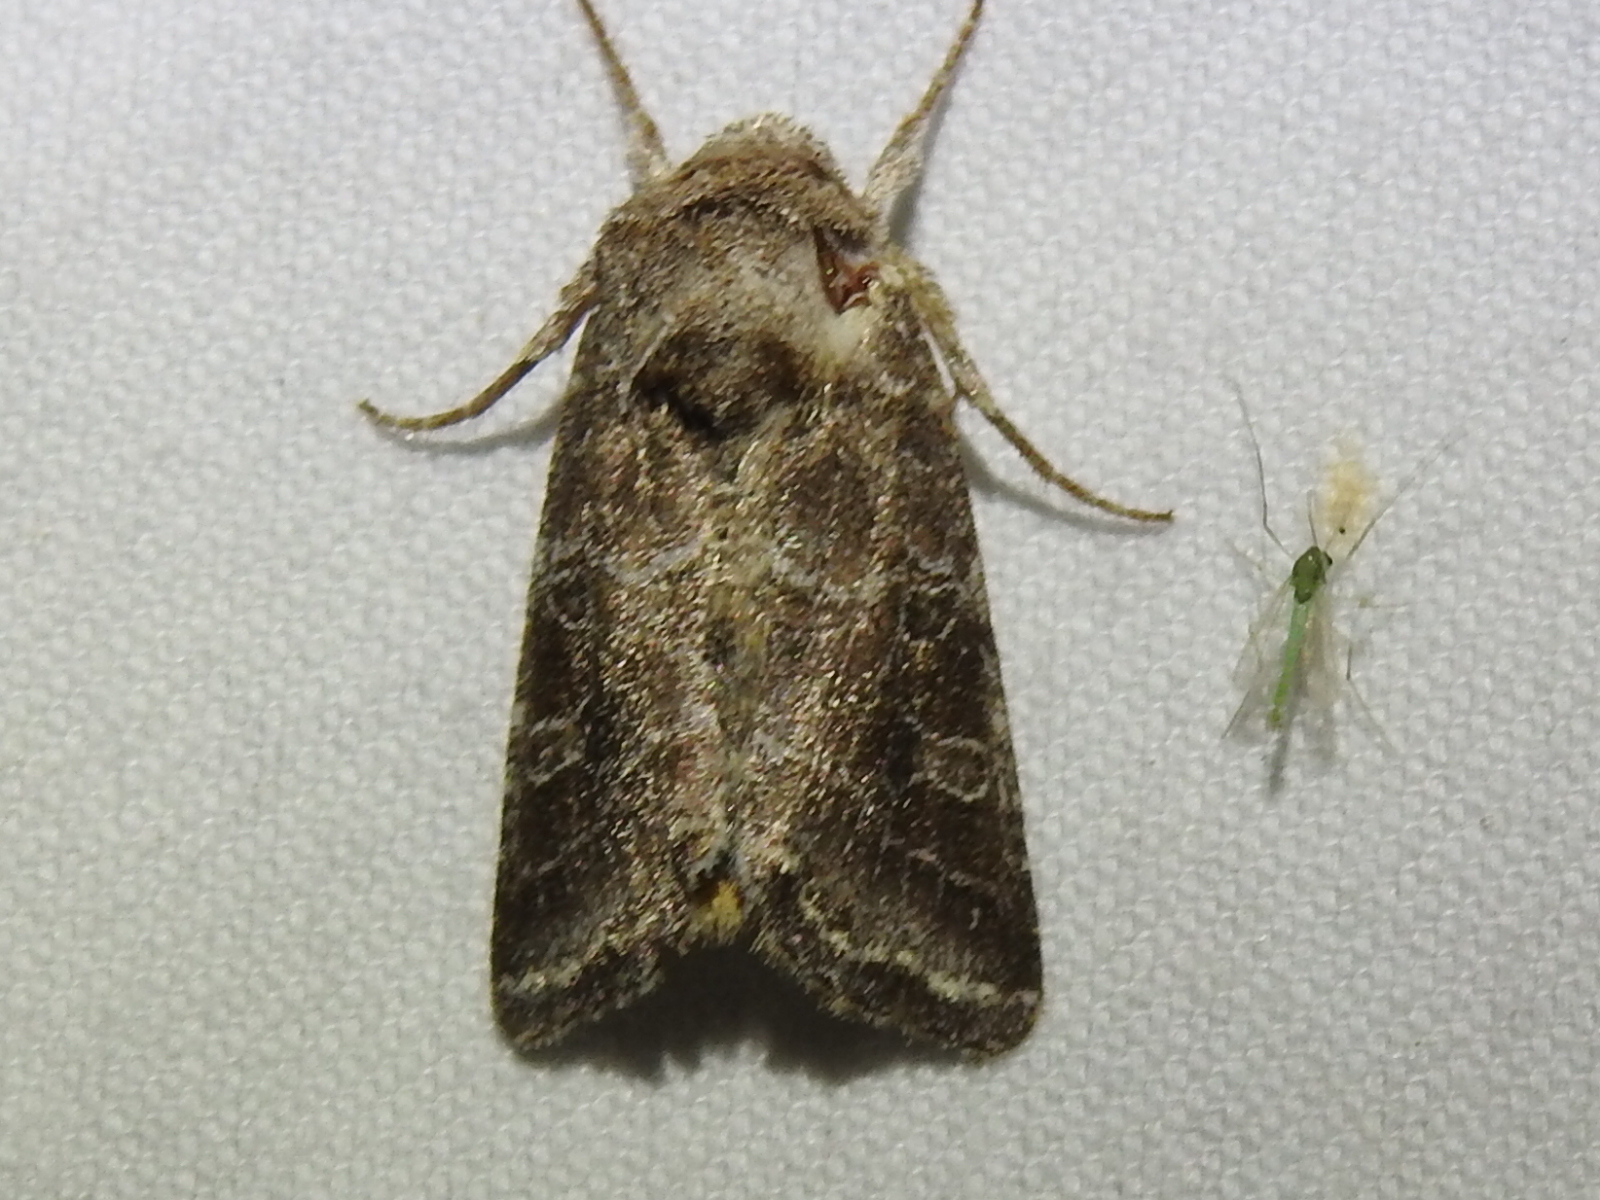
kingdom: Animalia
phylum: Arthropoda
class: Insecta
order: Lepidoptera
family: Noctuidae
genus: Lacinipolia
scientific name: Lacinipolia erecta
